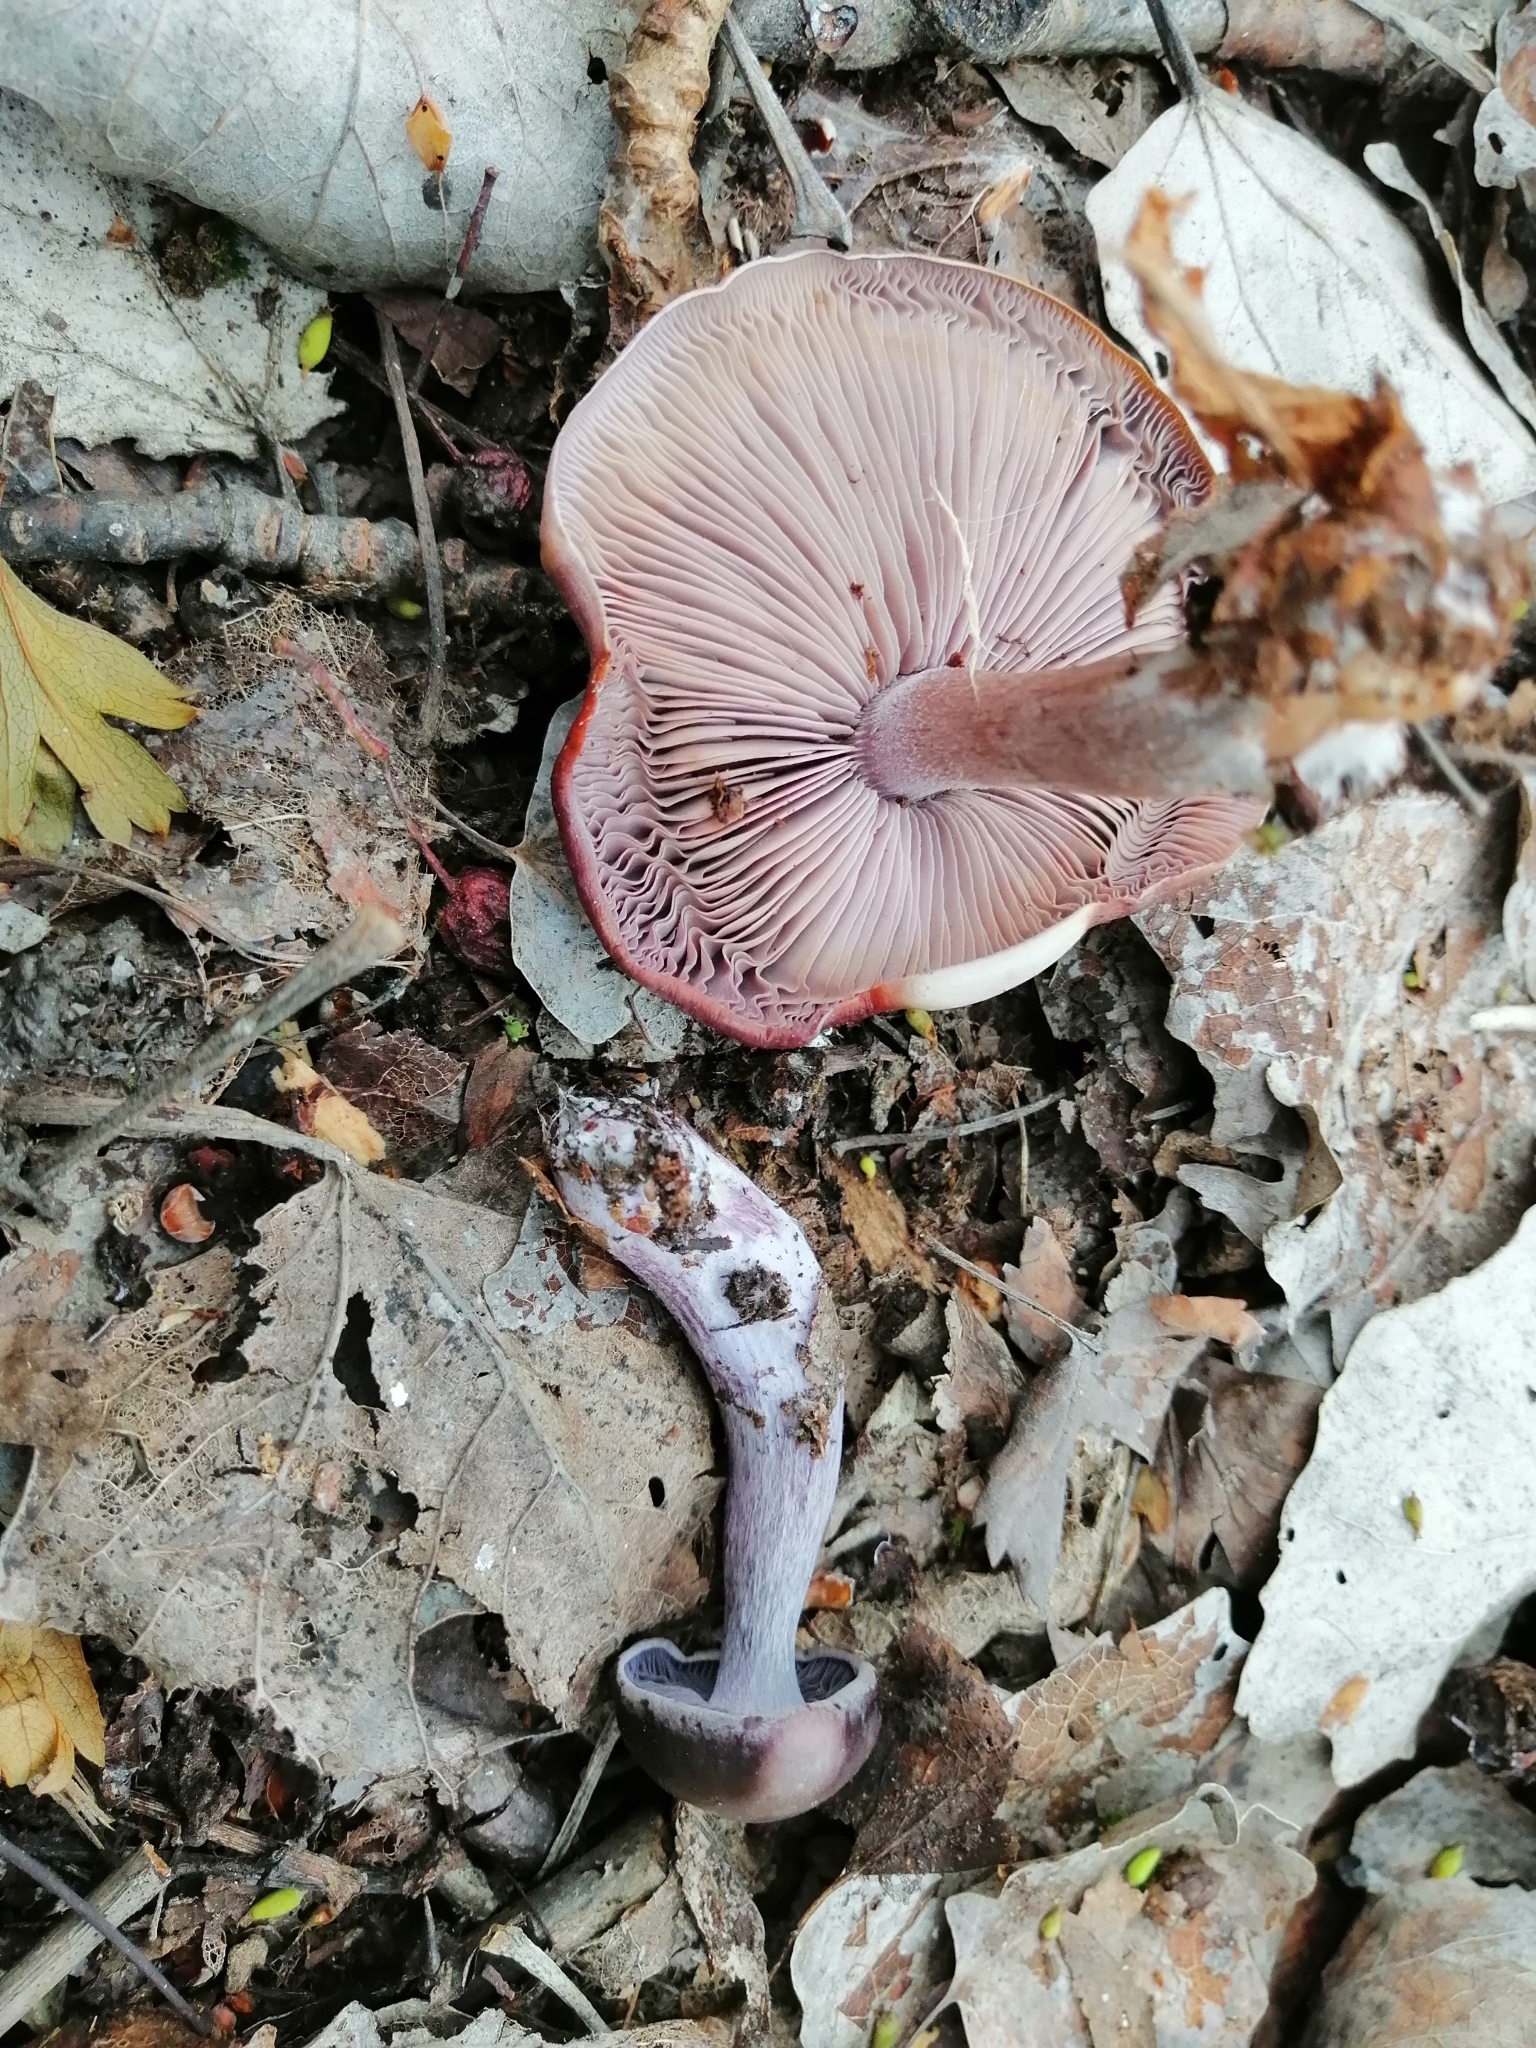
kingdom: Fungi
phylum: Basidiomycota
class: Agaricomycetes
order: Agaricales
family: Tricholomataceae
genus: Collybia
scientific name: Collybia
